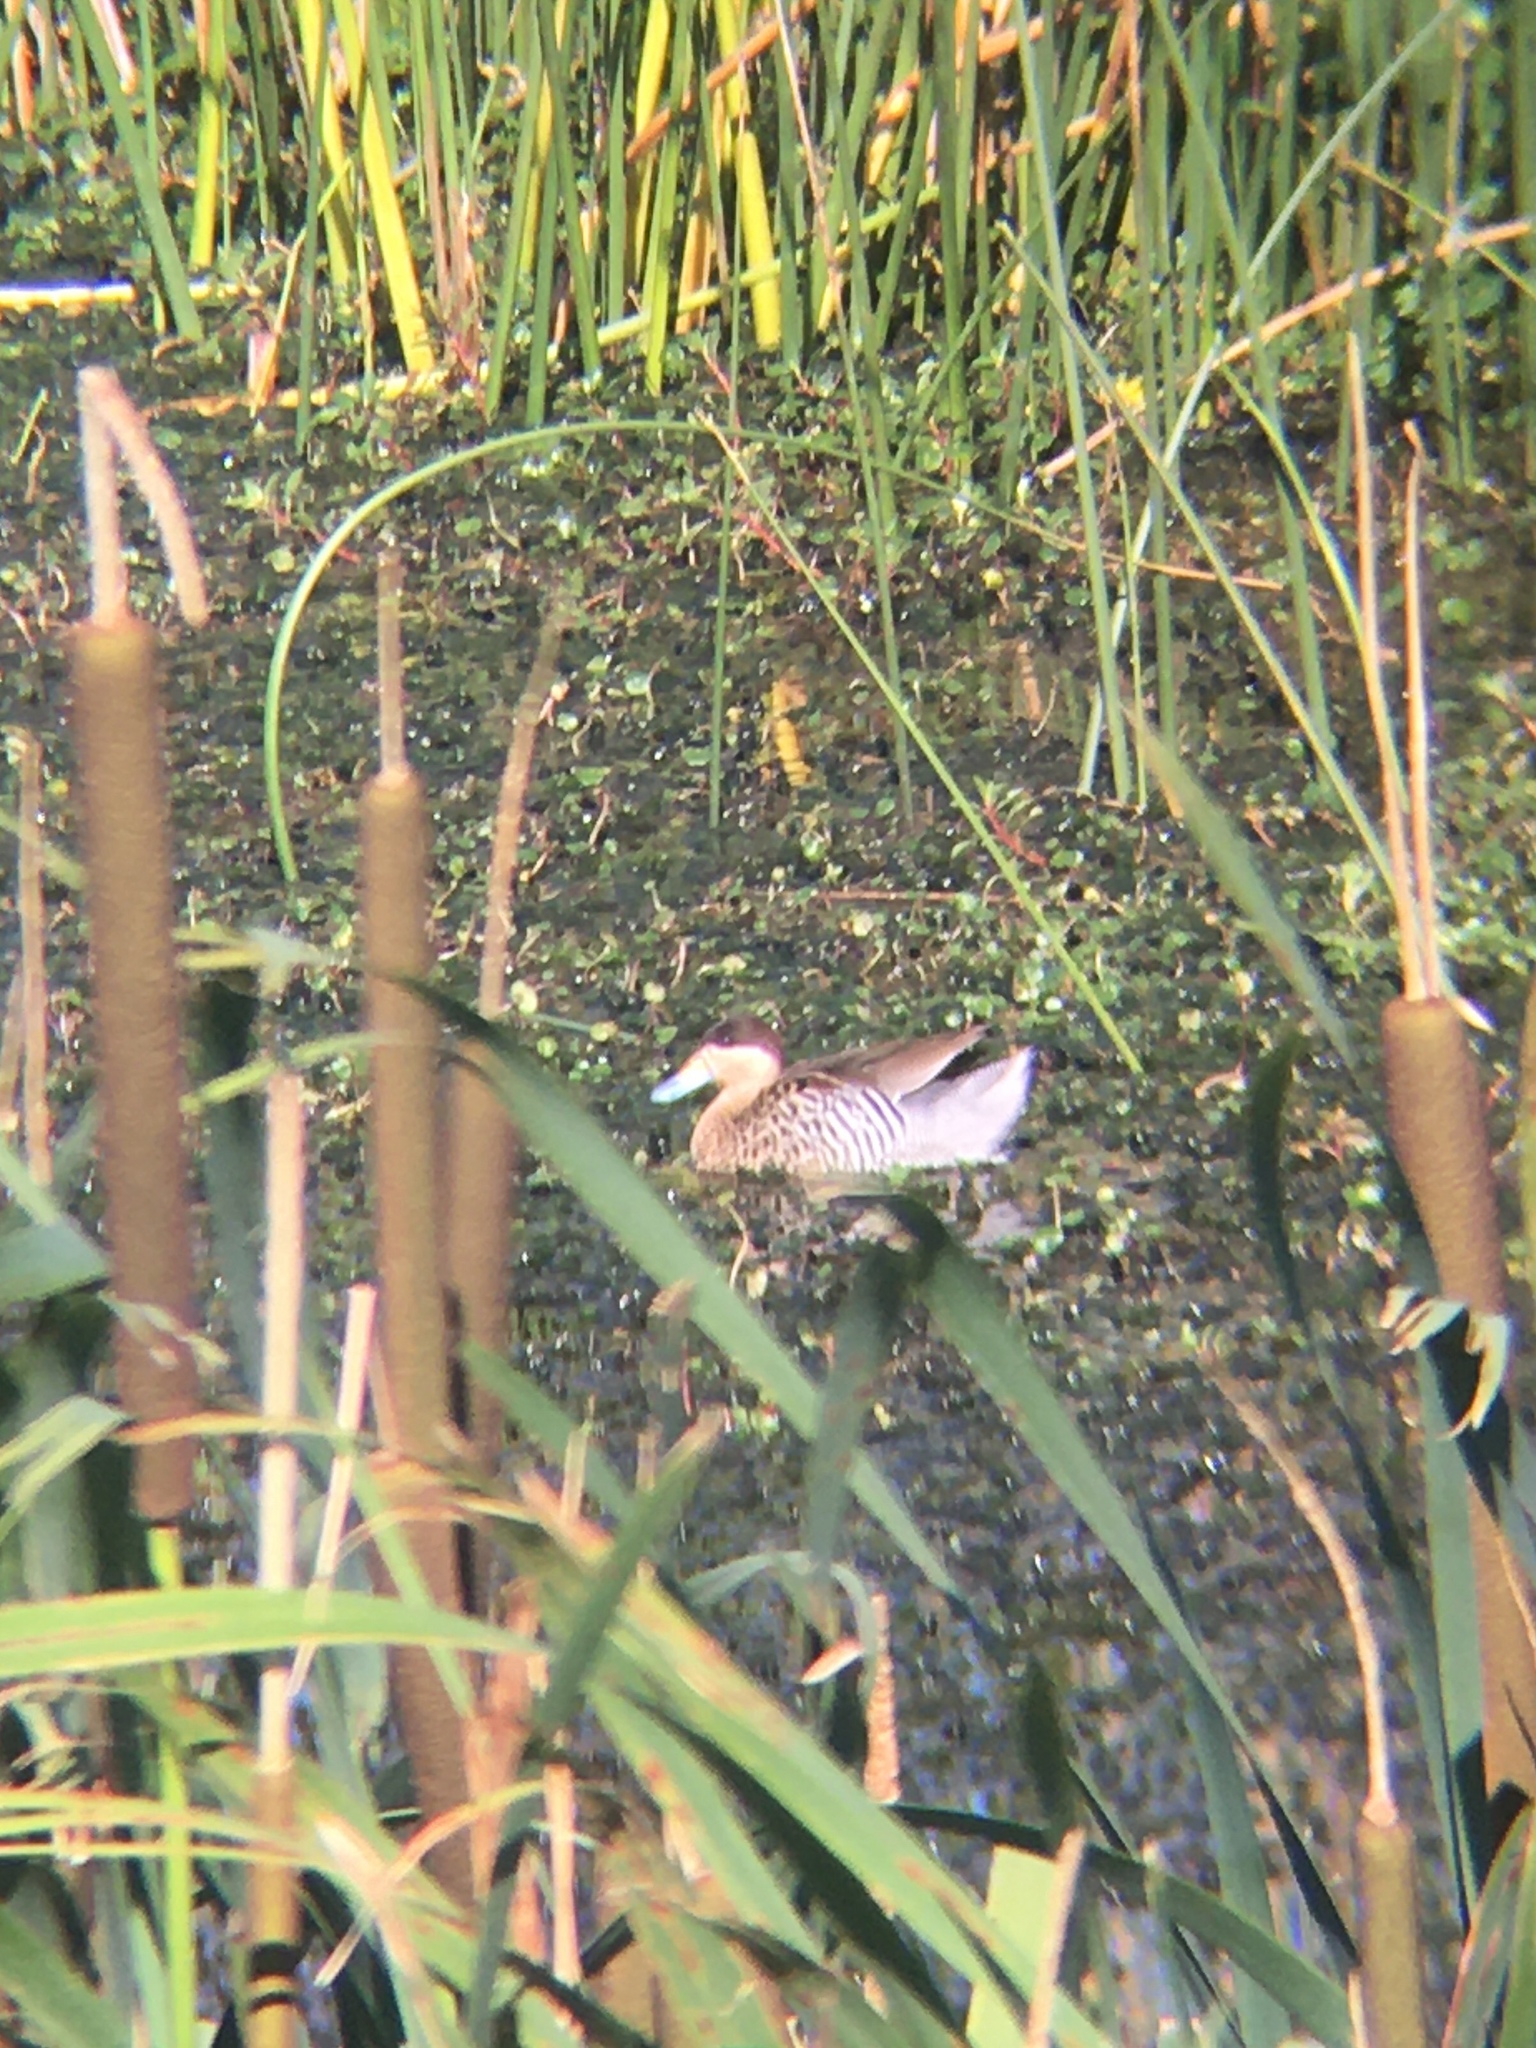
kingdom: Animalia
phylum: Chordata
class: Aves
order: Anseriformes
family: Anatidae
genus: Spatula
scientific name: Spatula versicolor
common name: Silver teal
